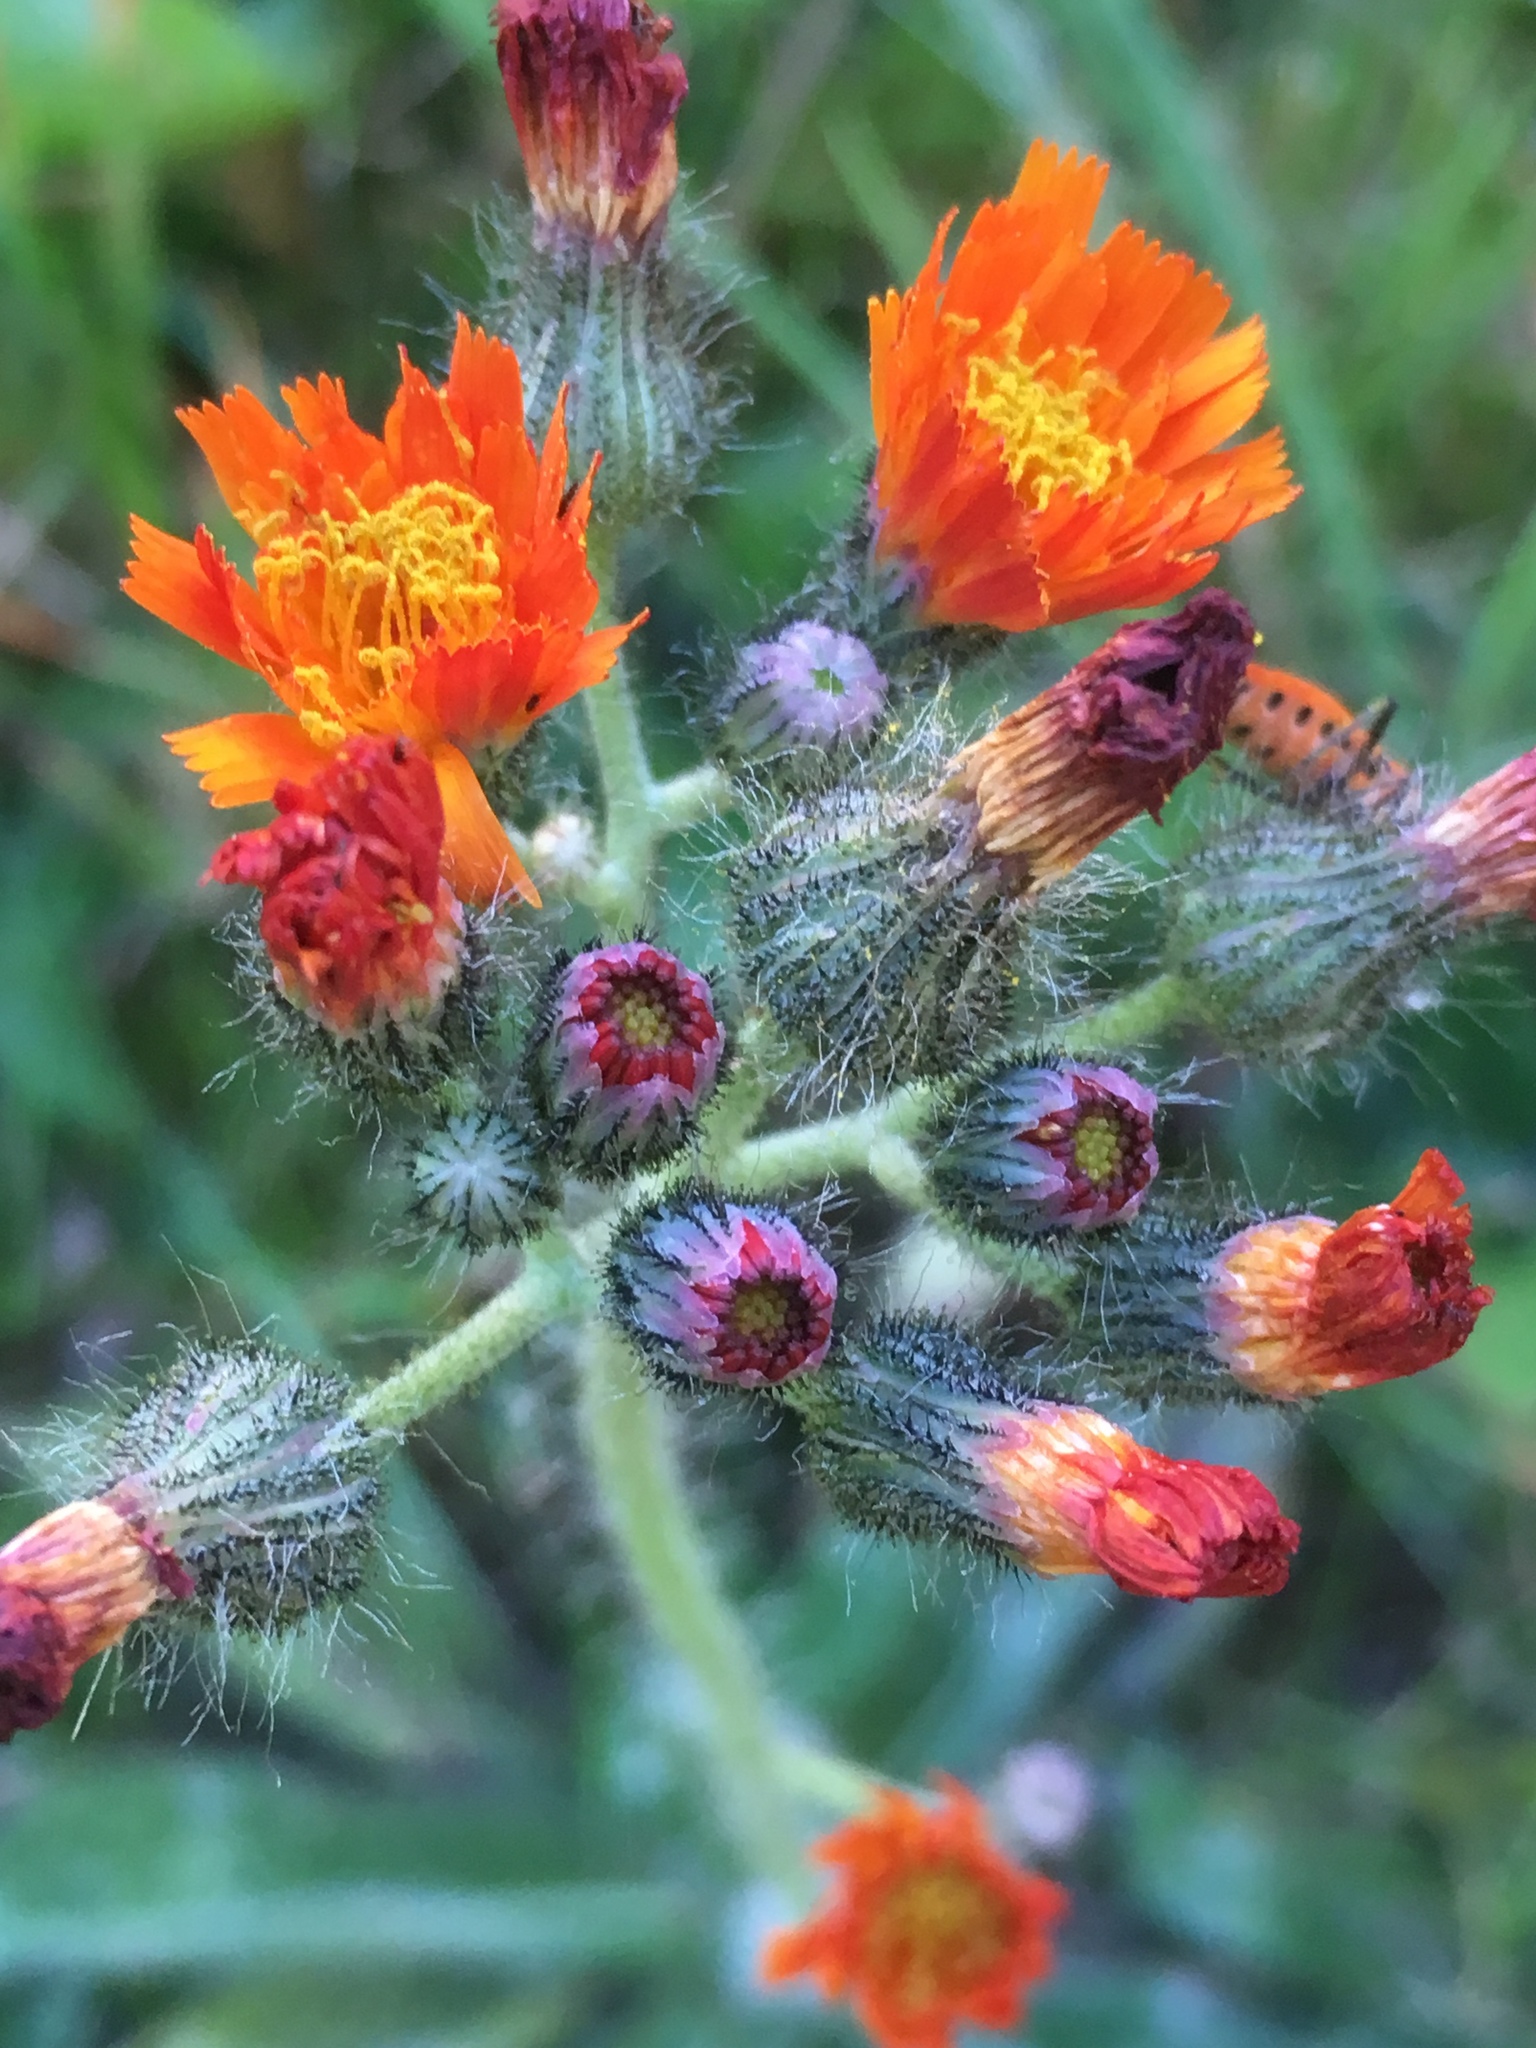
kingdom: Plantae
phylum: Tracheophyta
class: Magnoliopsida
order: Asterales
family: Asteraceae
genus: Pilosella
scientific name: Pilosella aurantiaca
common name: Fox-and-cubs
